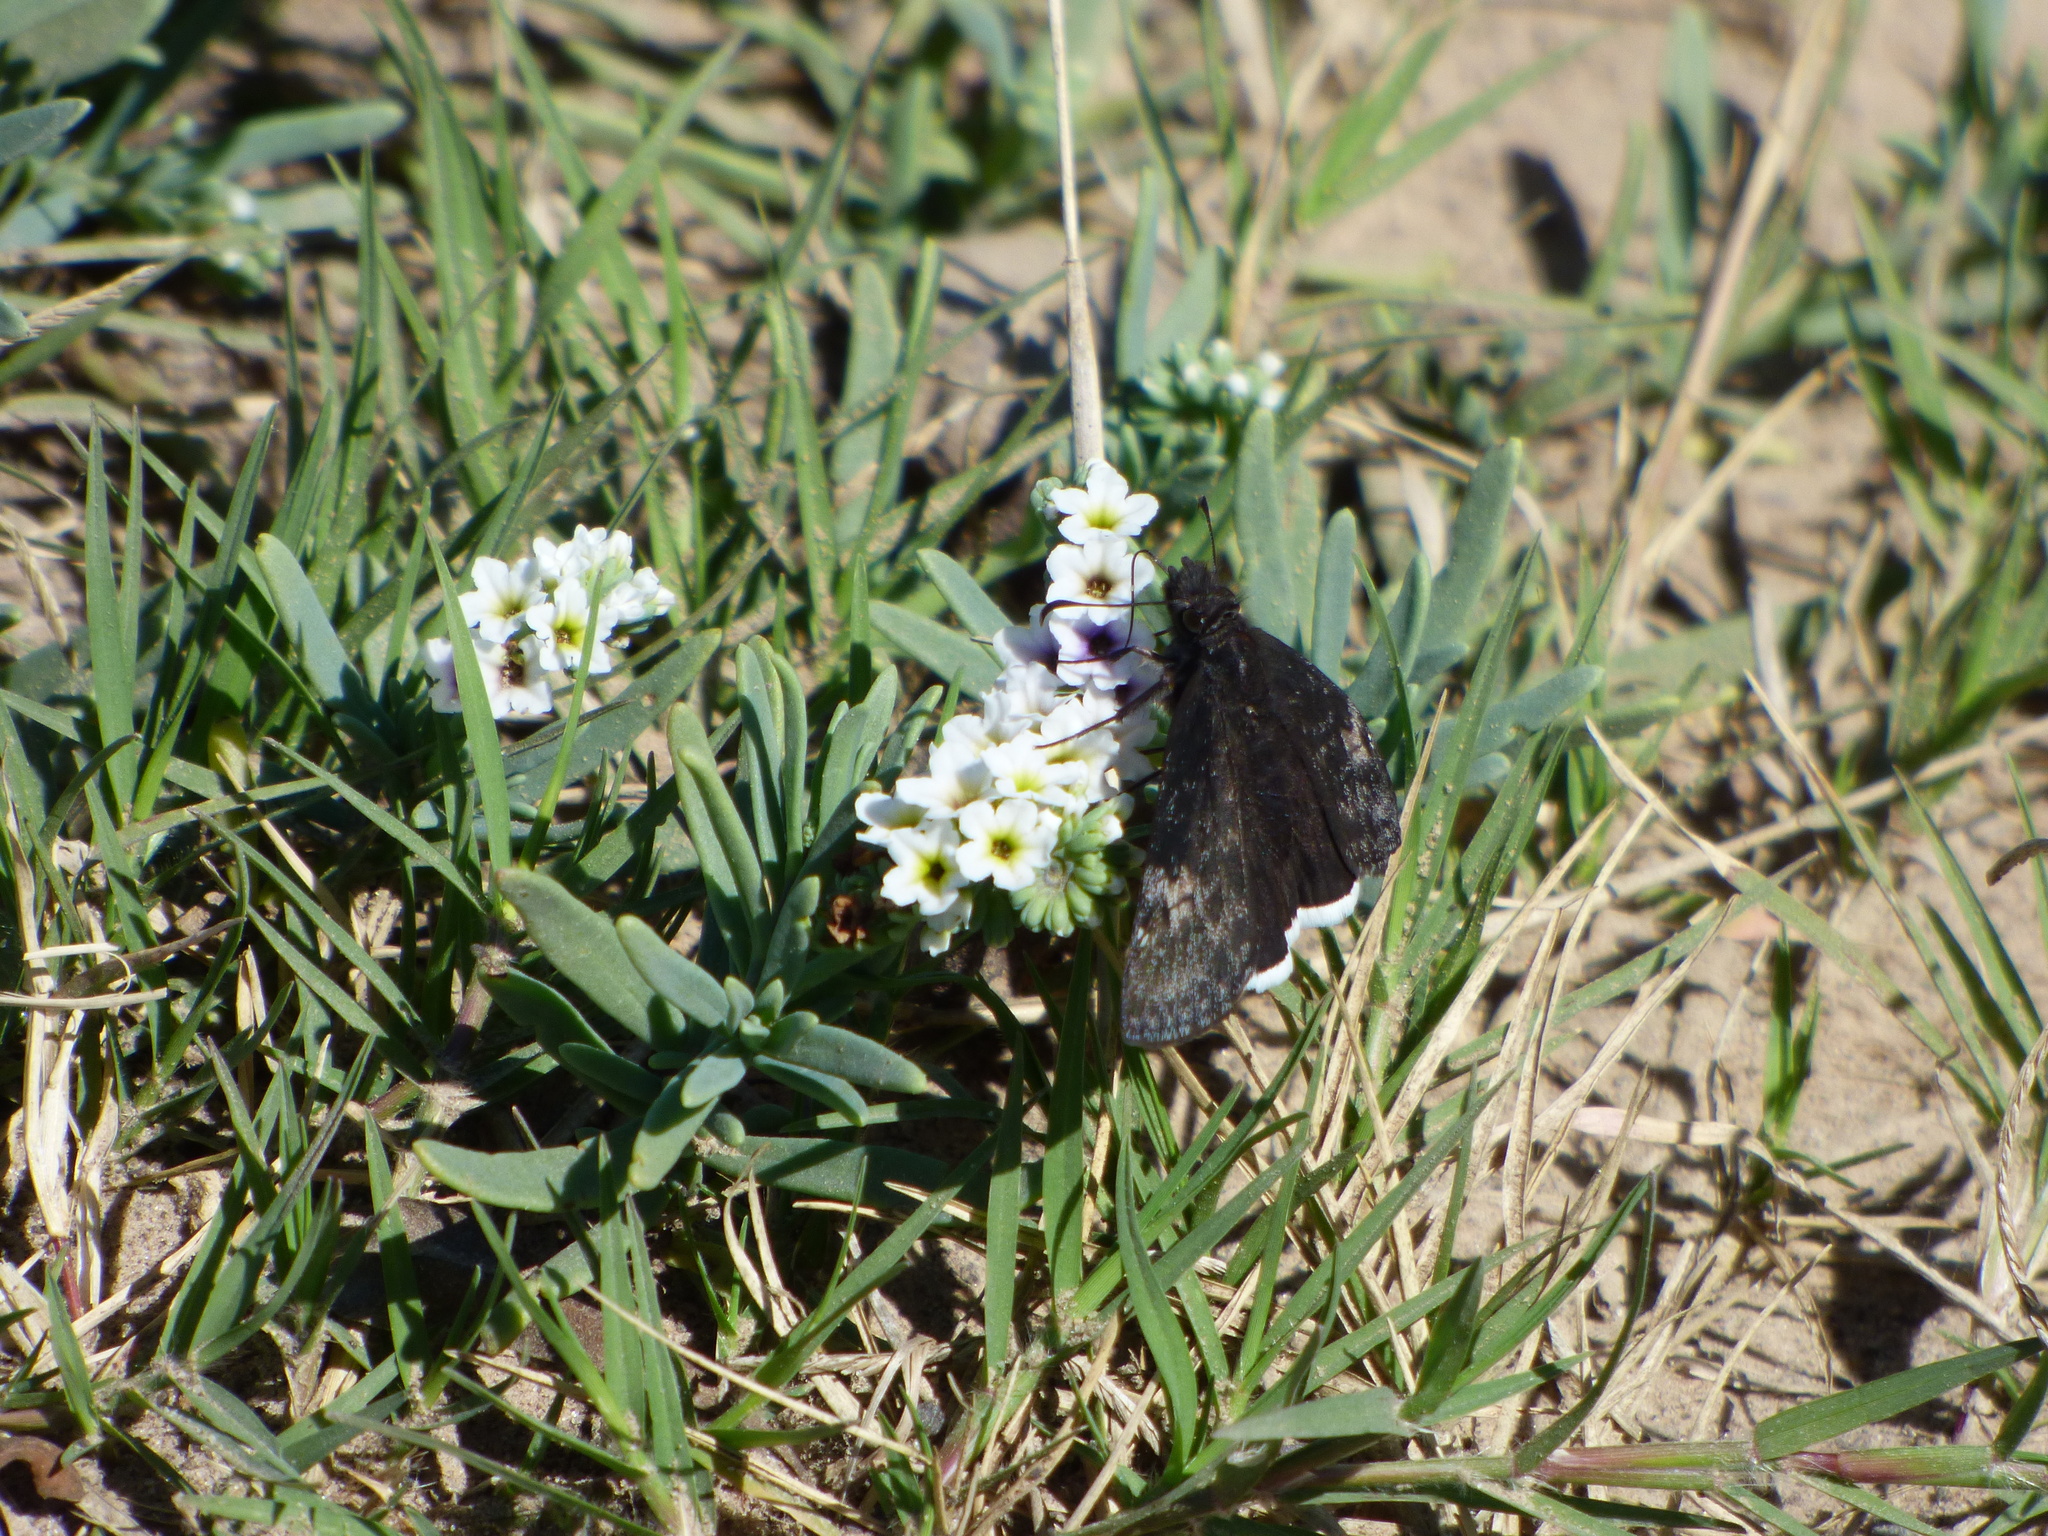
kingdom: Animalia
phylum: Arthropoda
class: Insecta
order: Lepidoptera
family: Hesperiidae
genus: Erynnis
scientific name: Erynnis funeralis
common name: Funereal duskywing
